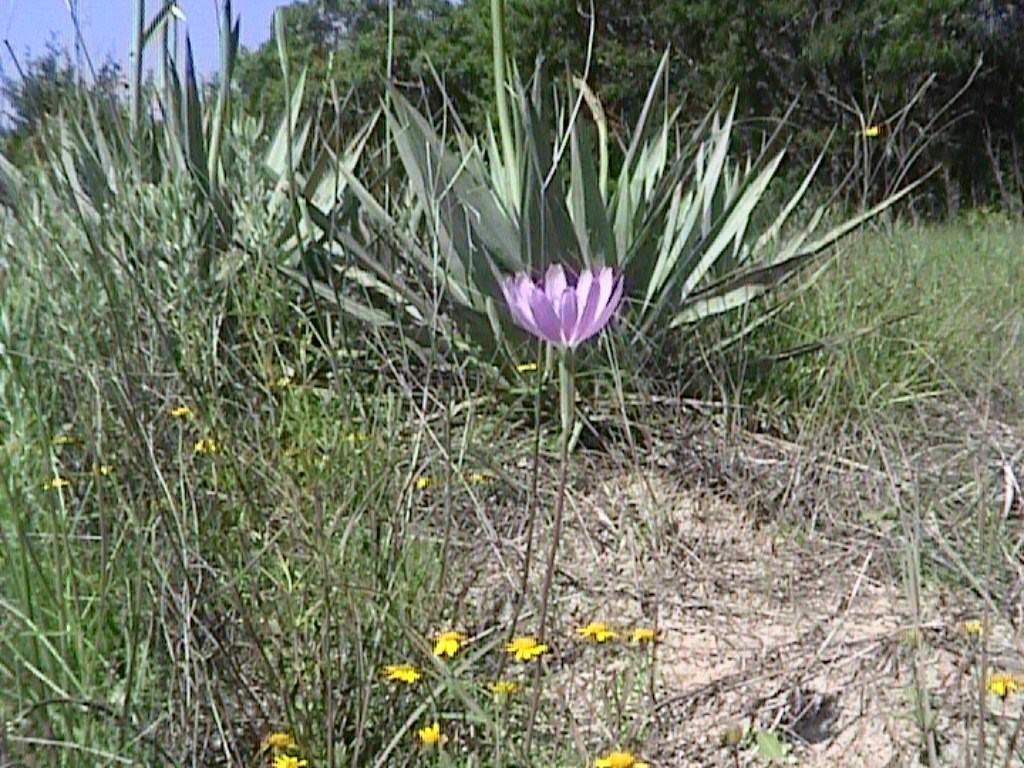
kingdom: Plantae
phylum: Tracheophyta
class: Magnoliopsida
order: Asterales
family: Asteraceae
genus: Lygodesmia
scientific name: Lygodesmia texana
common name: Texas skeleton-plant
